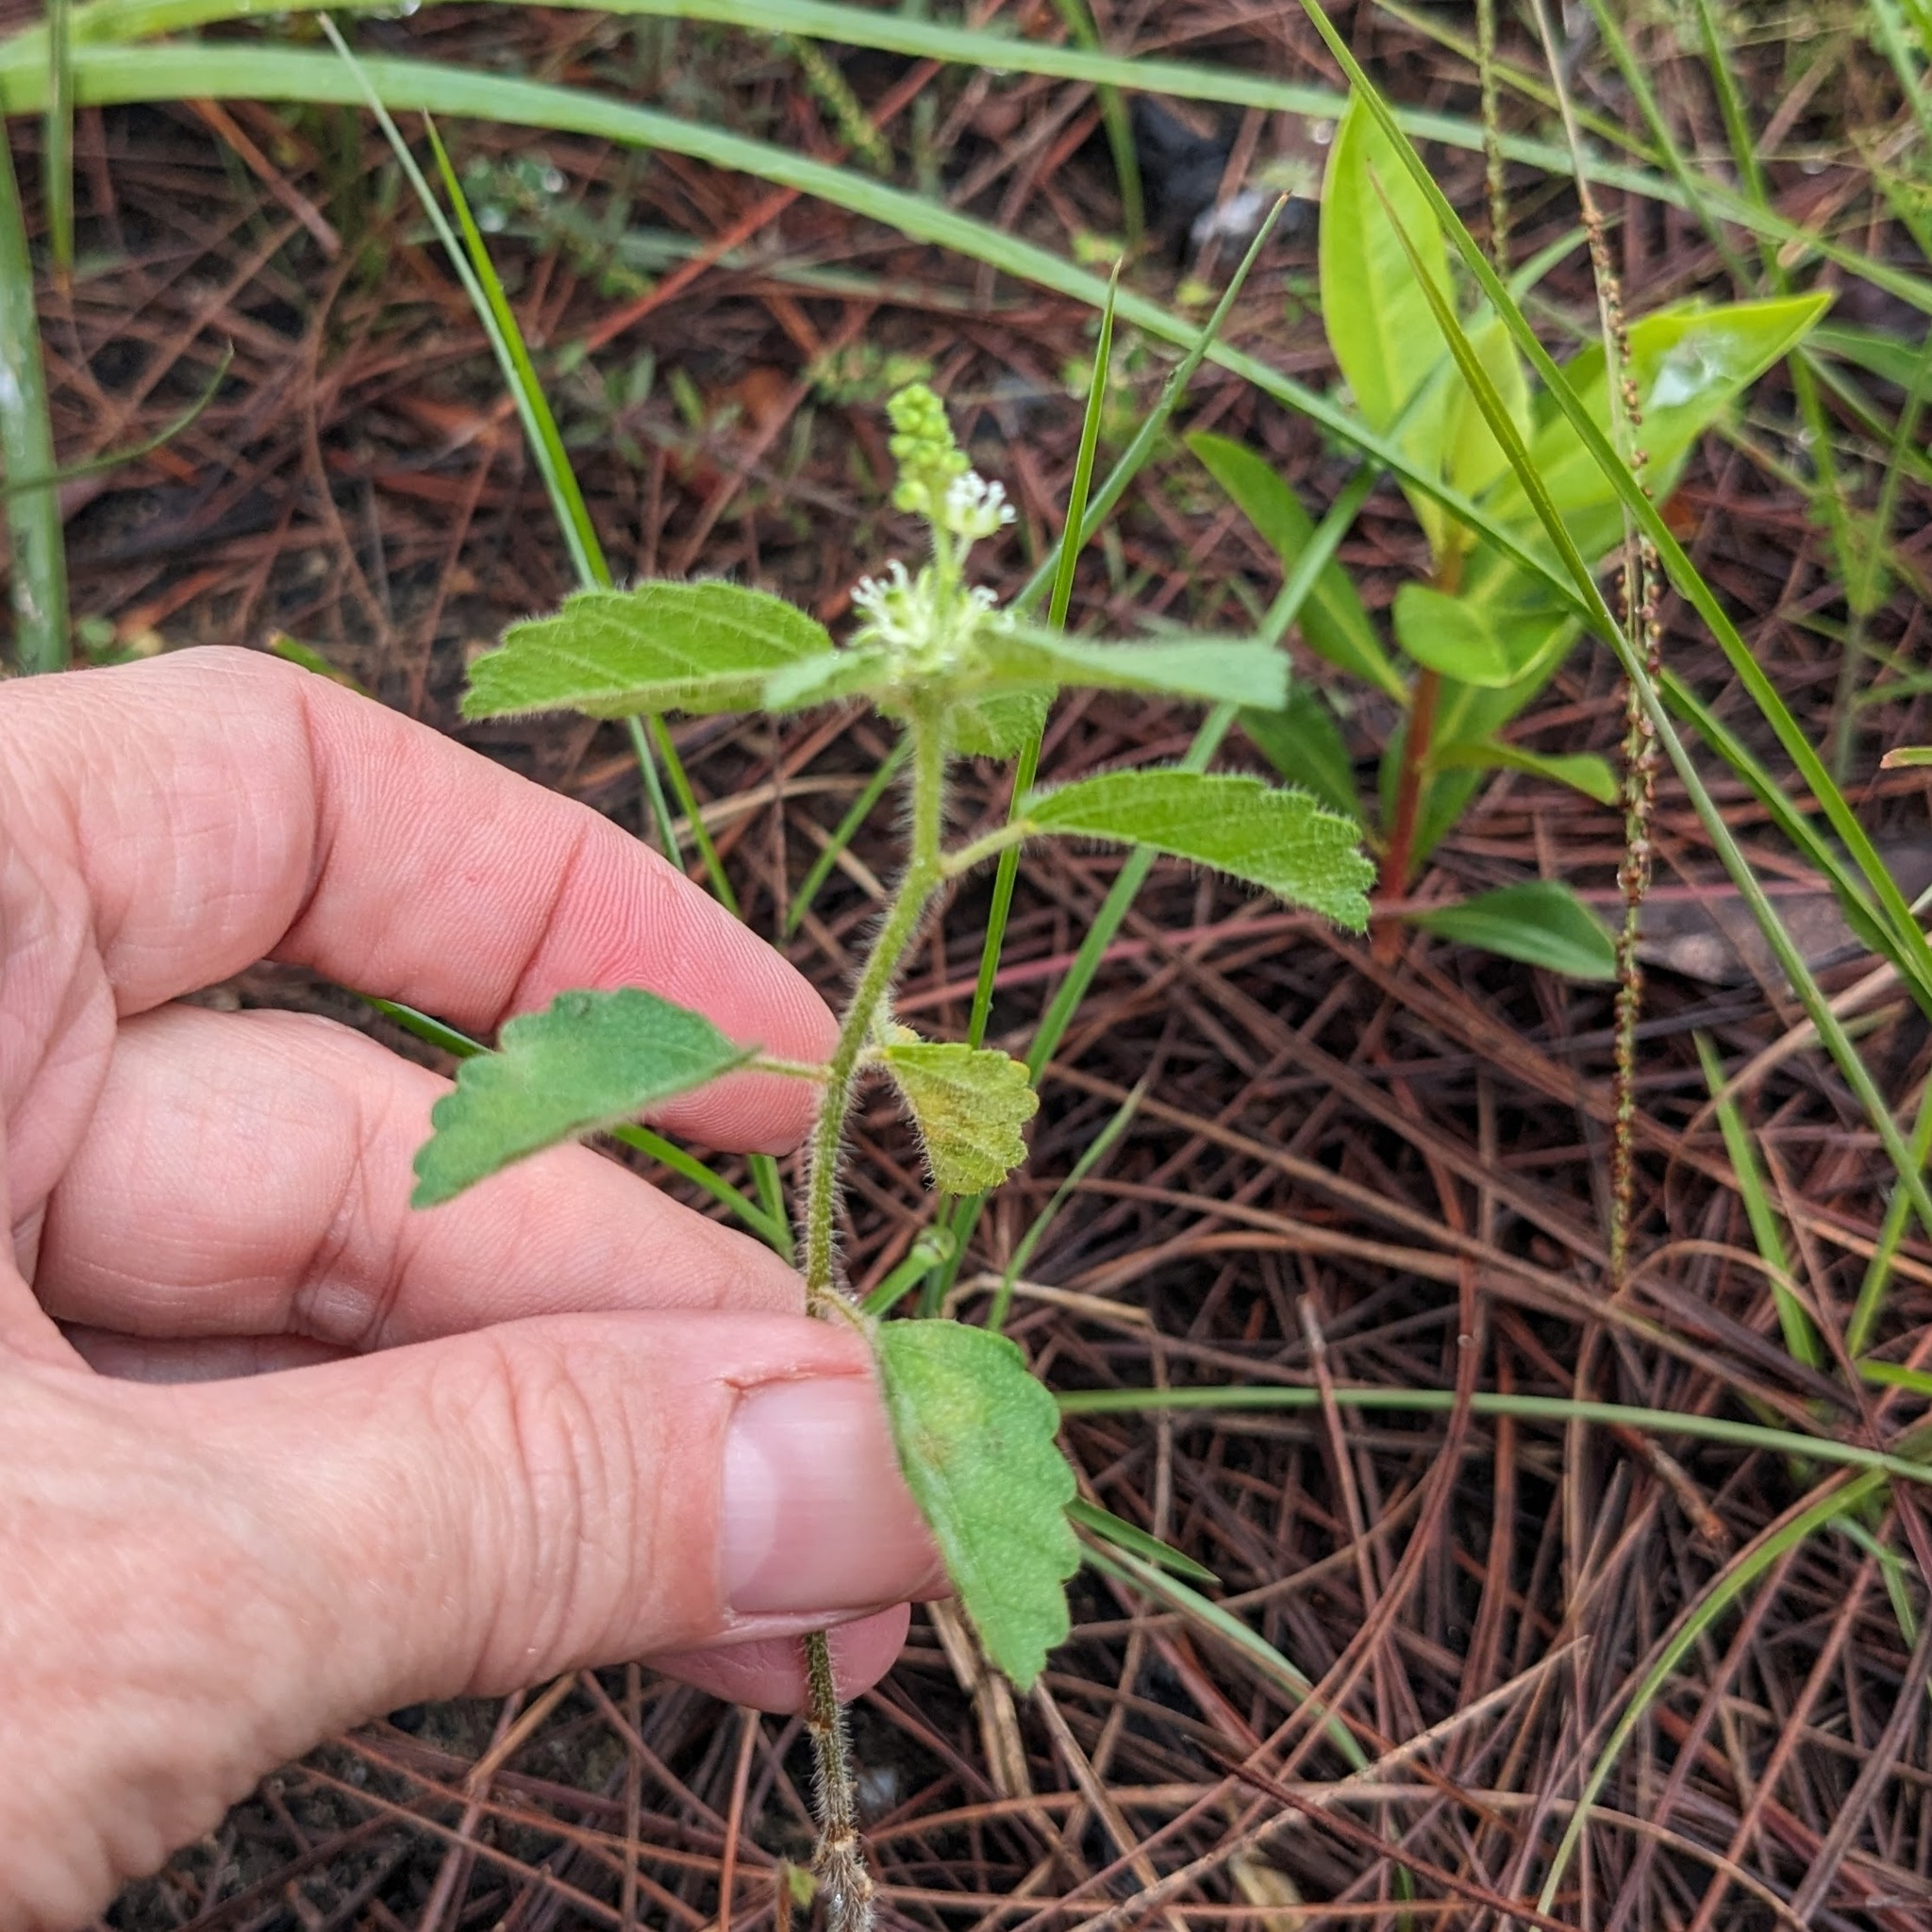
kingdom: Plantae
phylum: Tracheophyta
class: Magnoliopsida
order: Malpighiales
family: Euphorbiaceae
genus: Croton
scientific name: Croton glandulosus
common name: Tropic croton
